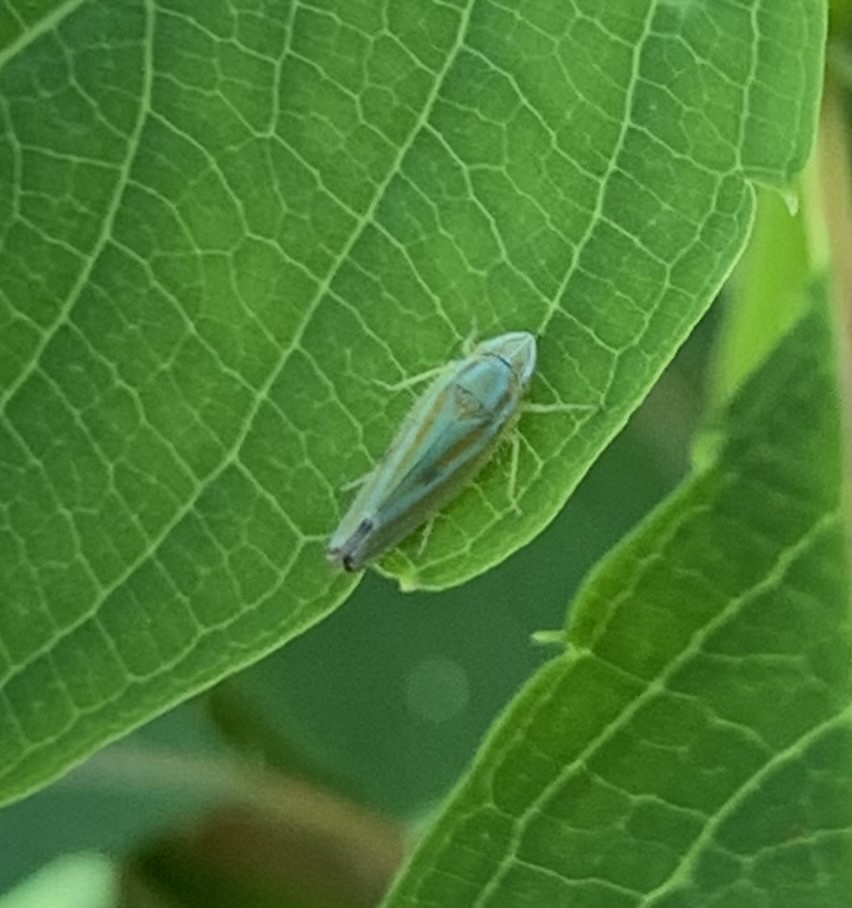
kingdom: Animalia
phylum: Arthropoda
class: Insecta
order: Hemiptera
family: Cicadellidae
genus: Graphocephala
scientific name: Graphocephala versuta
